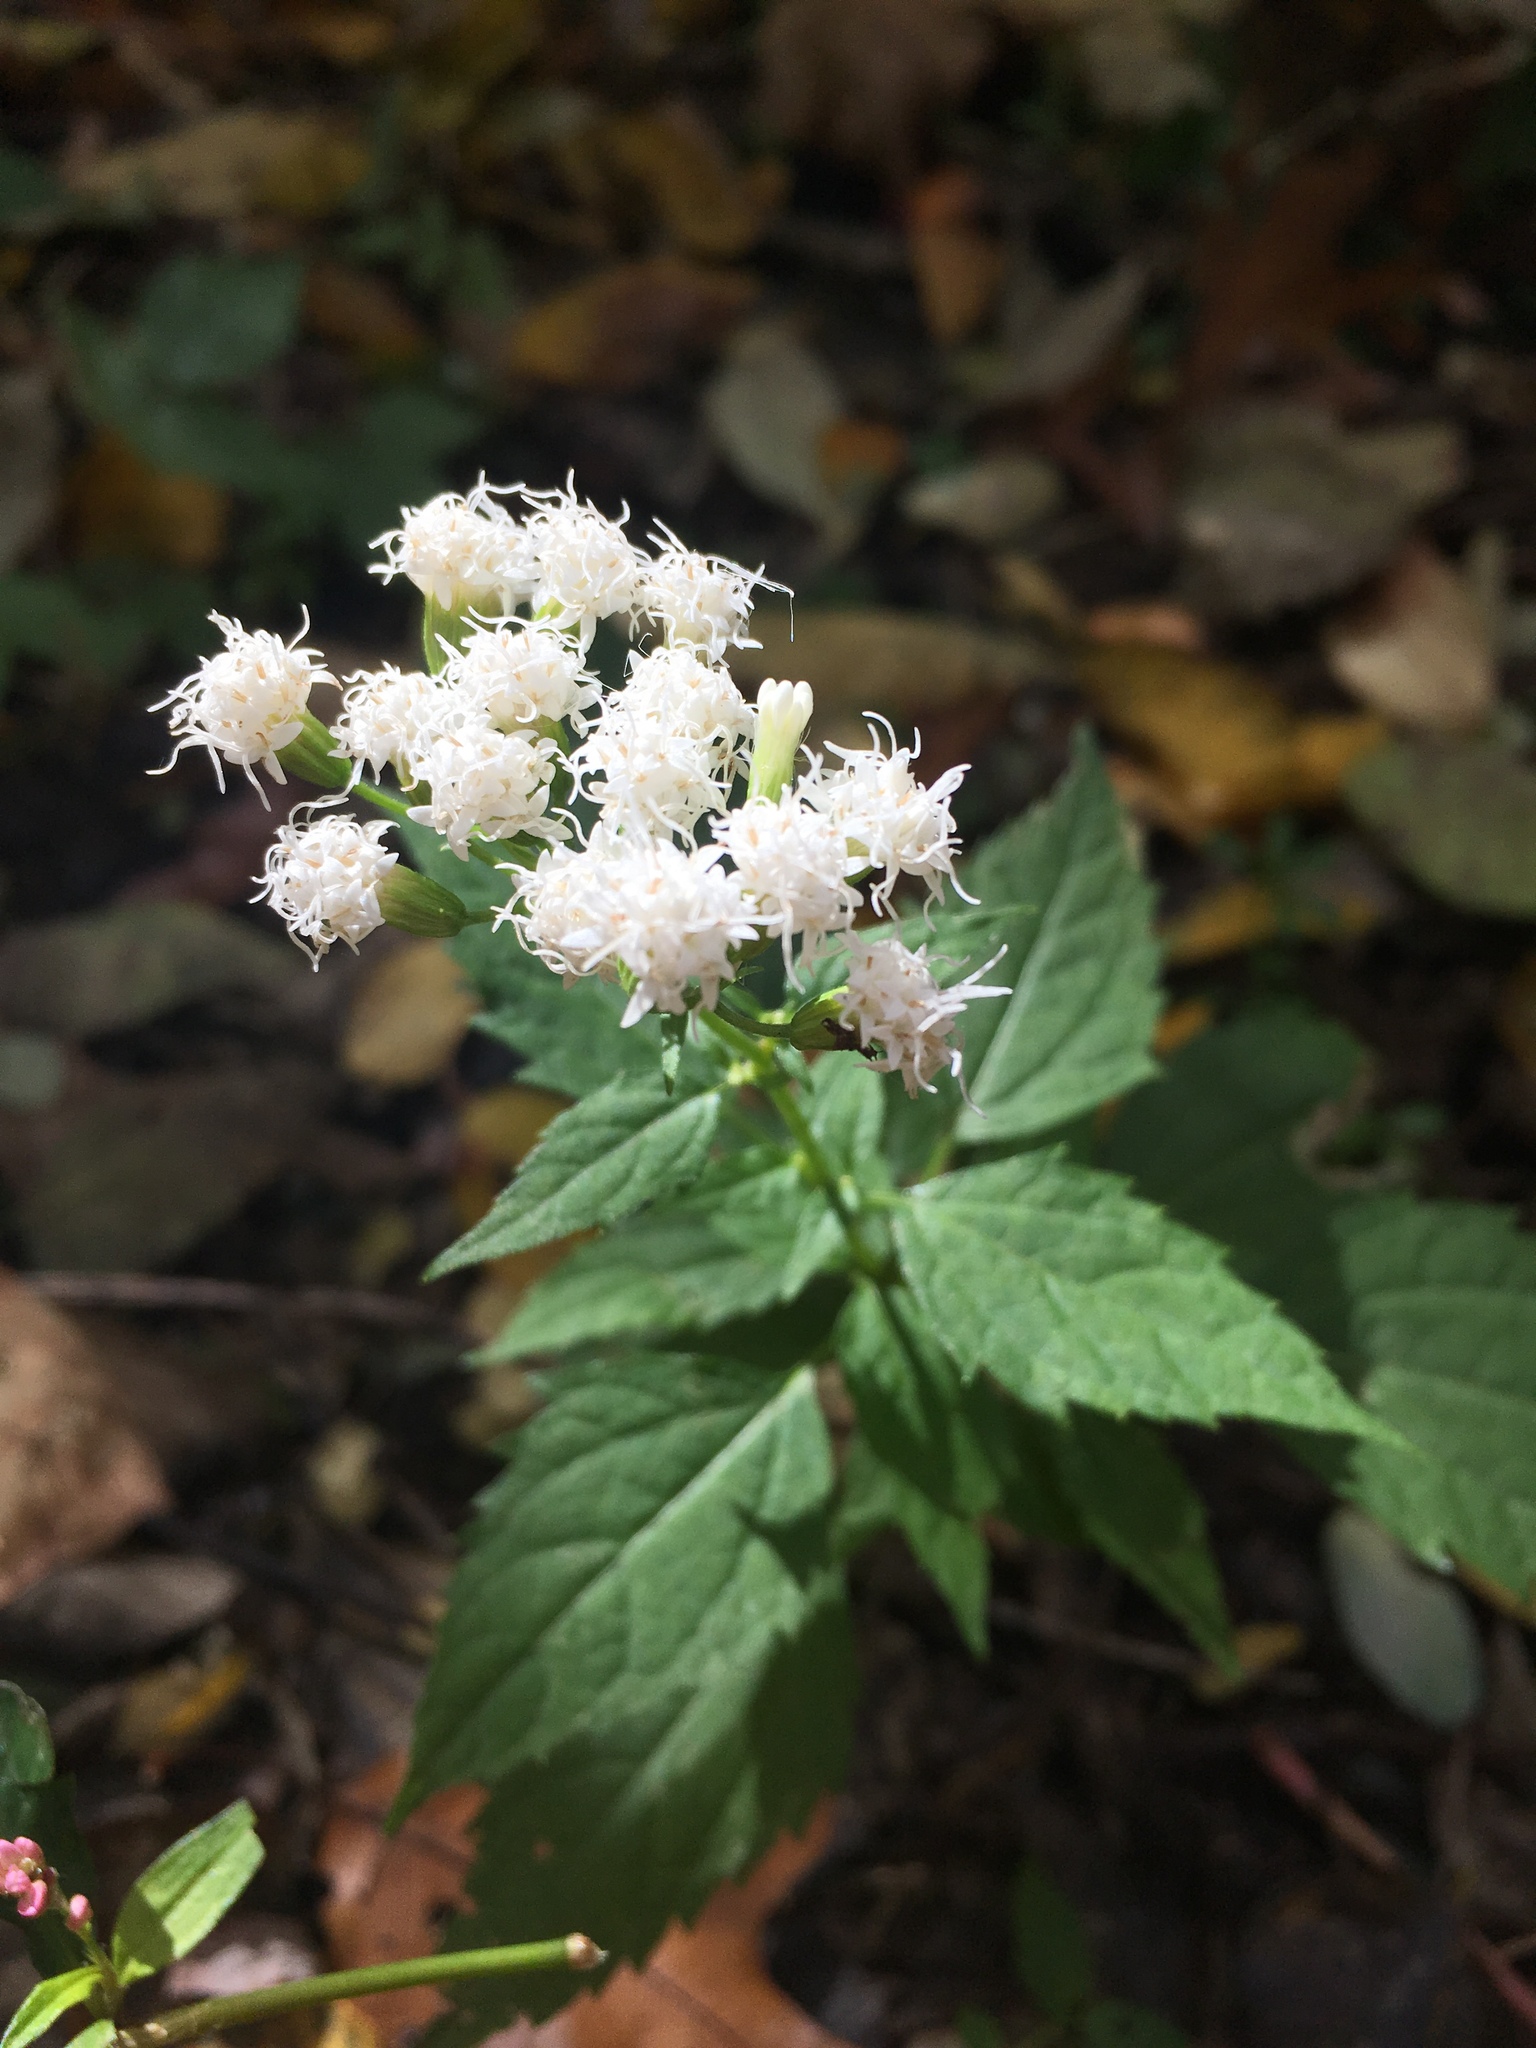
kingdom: Plantae
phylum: Tracheophyta
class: Magnoliopsida
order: Asterales
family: Asteraceae
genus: Ageratina
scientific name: Ageratina altissima
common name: White snakeroot
